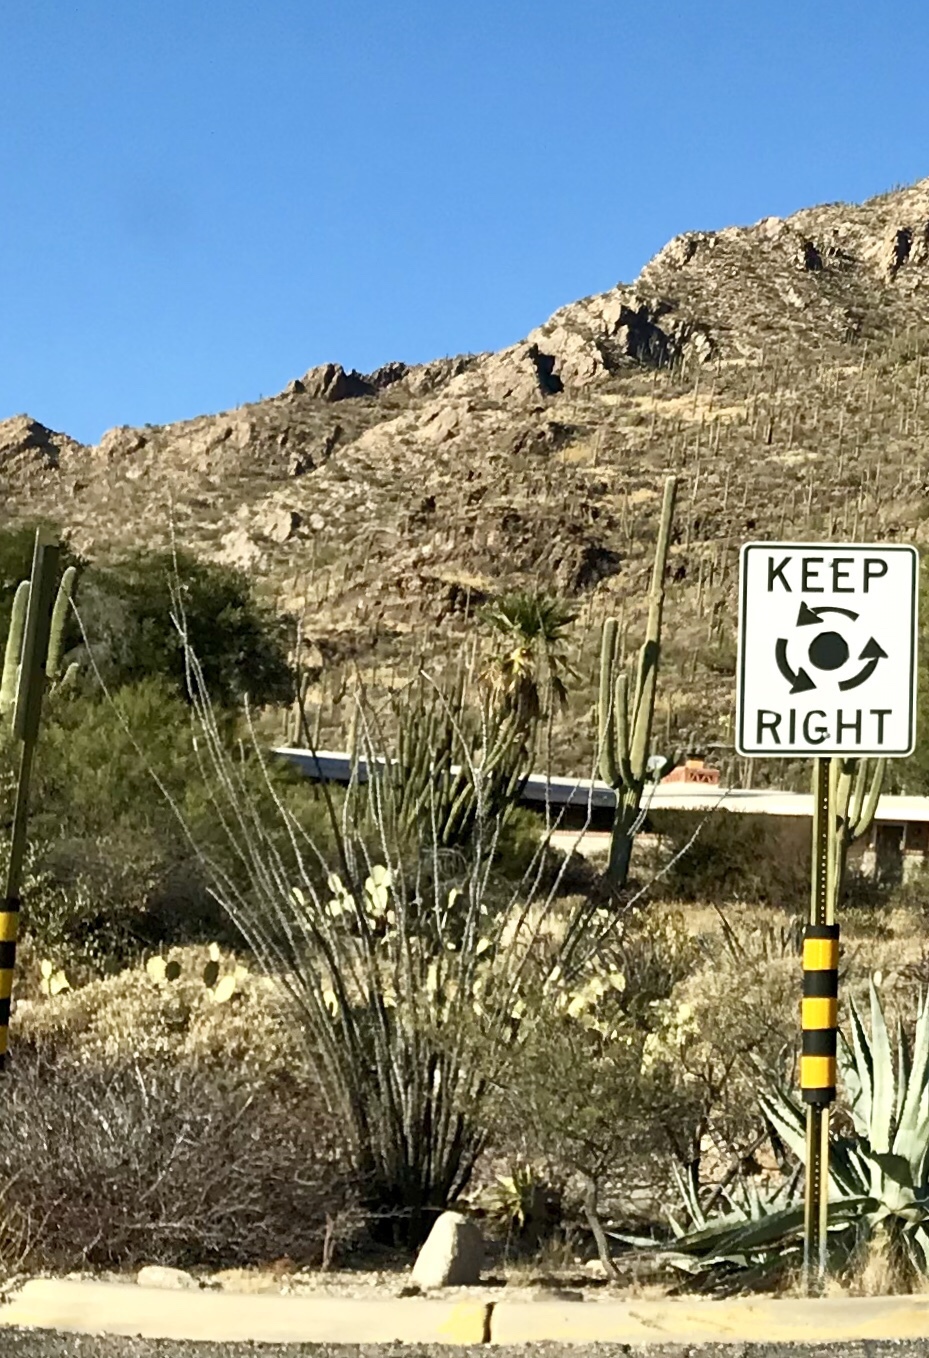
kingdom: Plantae
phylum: Tracheophyta
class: Magnoliopsida
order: Ericales
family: Fouquieriaceae
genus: Fouquieria
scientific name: Fouquieria splendens
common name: Vine-cactus
